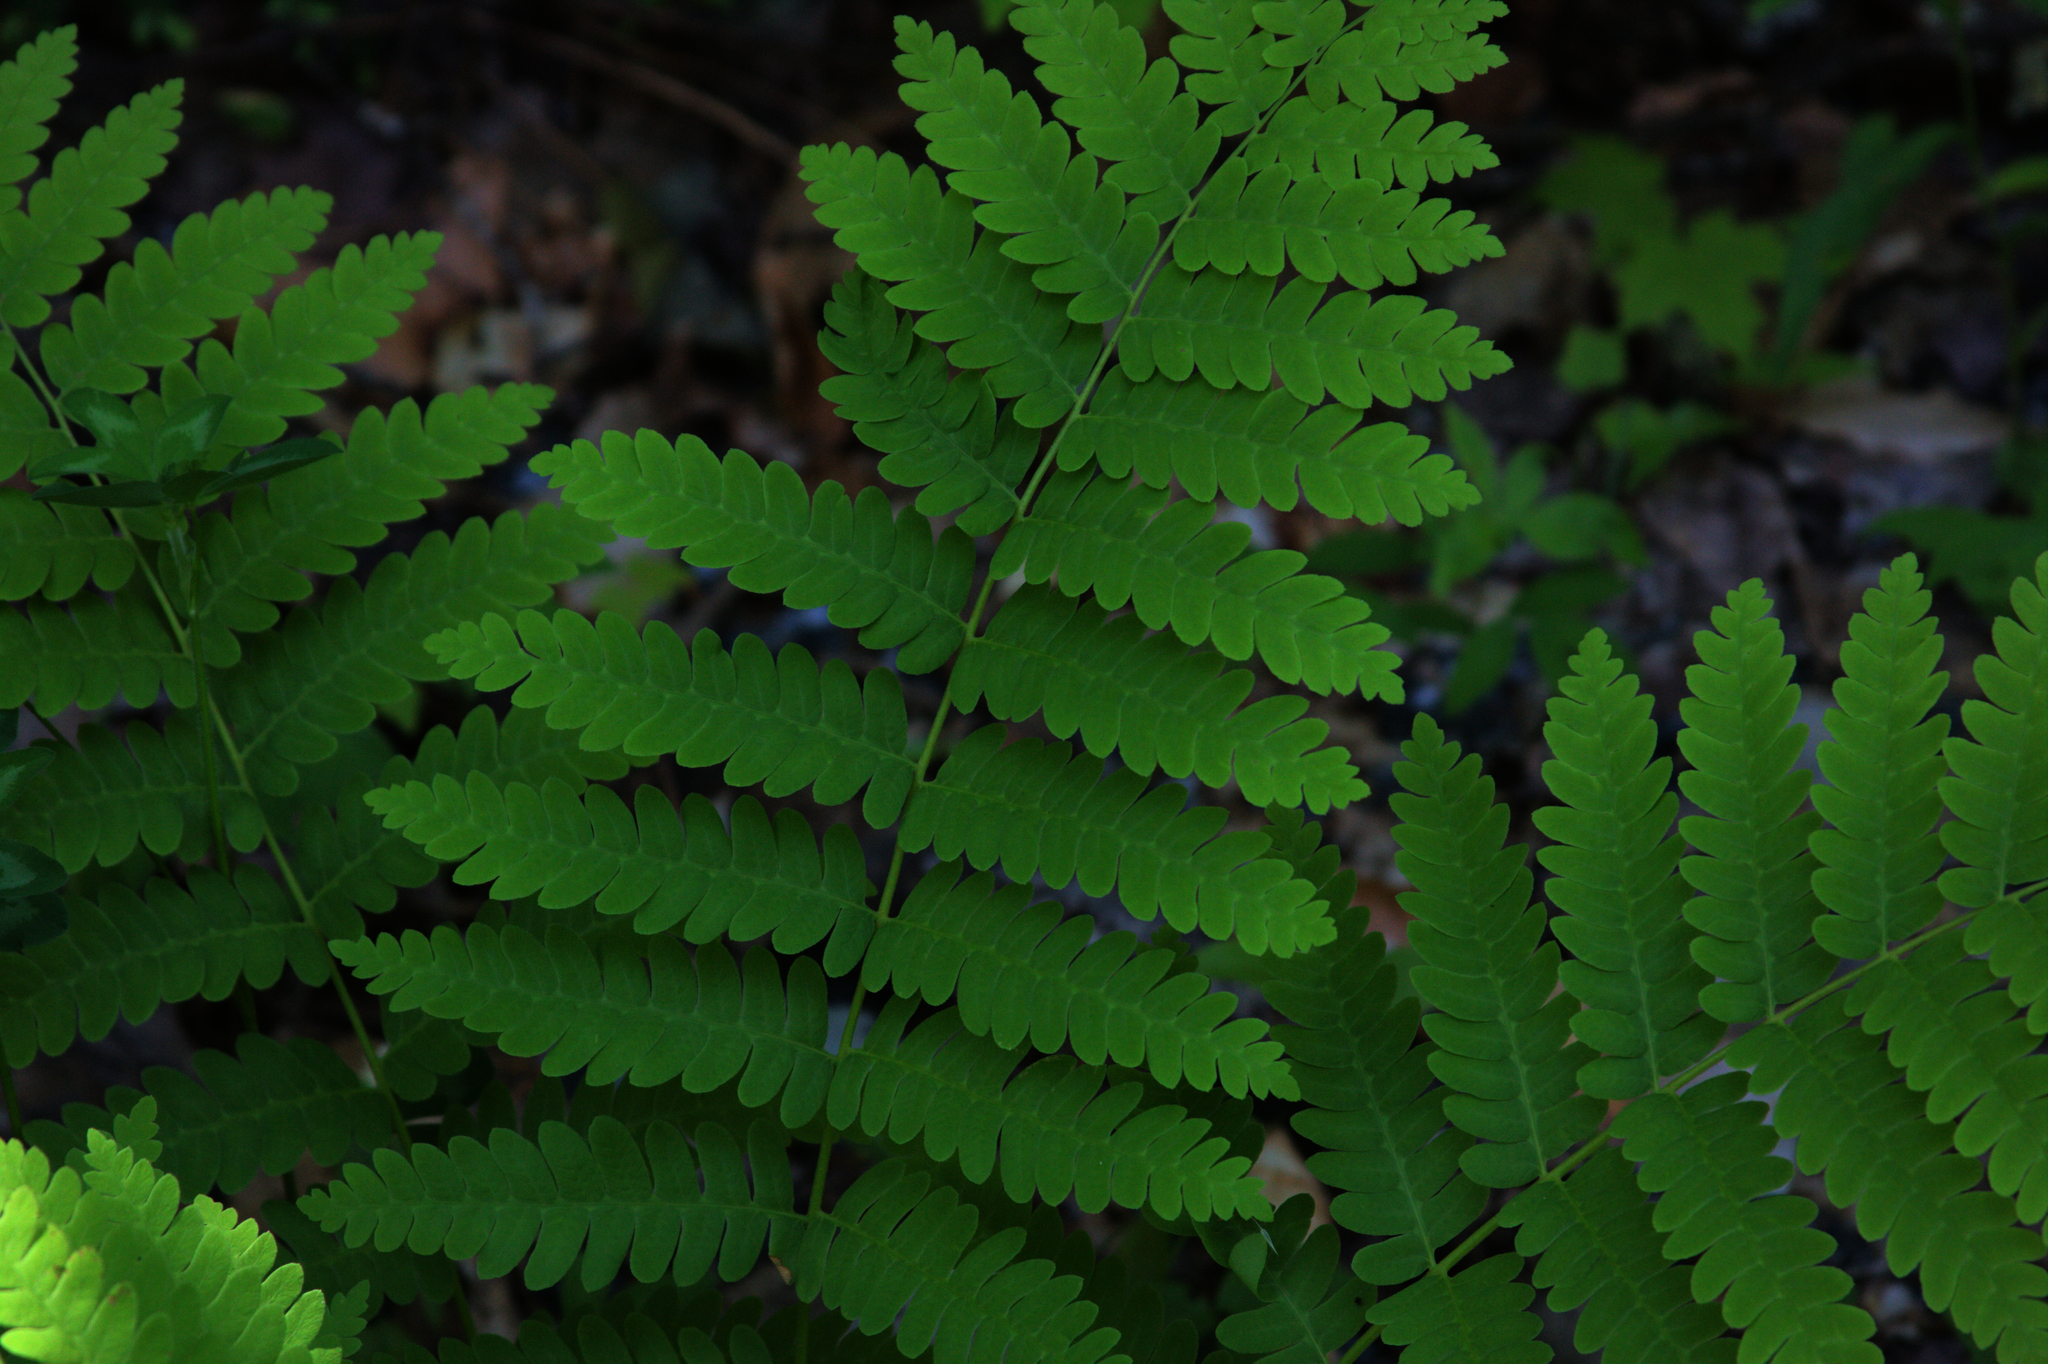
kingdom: Plantae
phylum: Tracheophyta
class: Polypodiopsida
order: Osmundales
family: Osmundaceae
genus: Claytosmunda
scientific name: Claytosmunda claytoniana
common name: Clayton's fern
